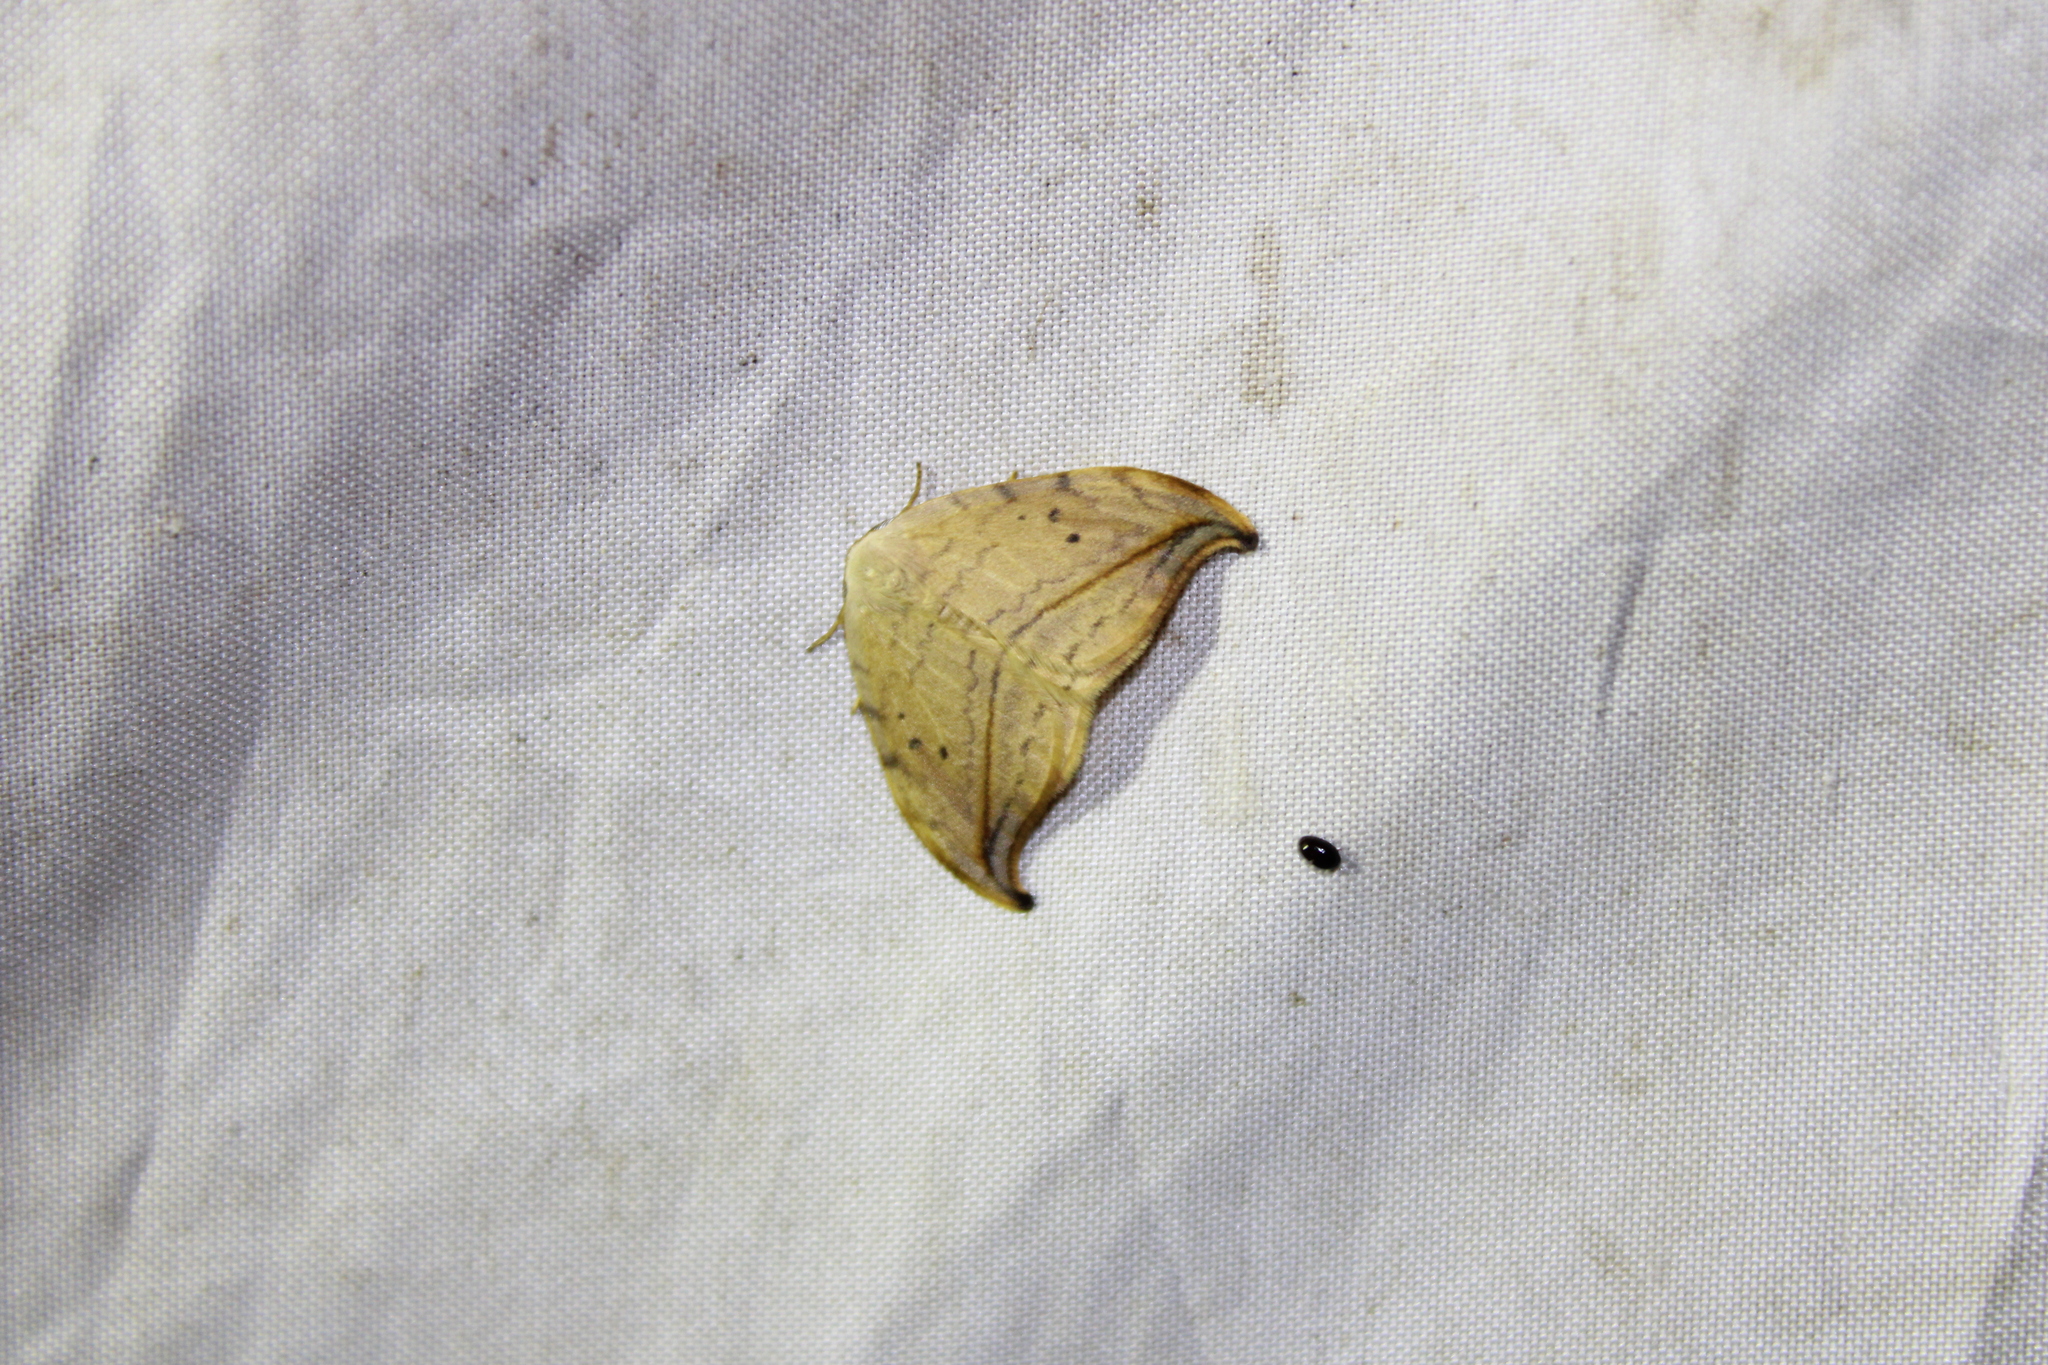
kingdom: Animalia
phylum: Arthropoda
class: Insecta
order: Lepidoptera
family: Drepanidae
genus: Drepana
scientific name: Drepana arcuata
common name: Arched hooktip moth
